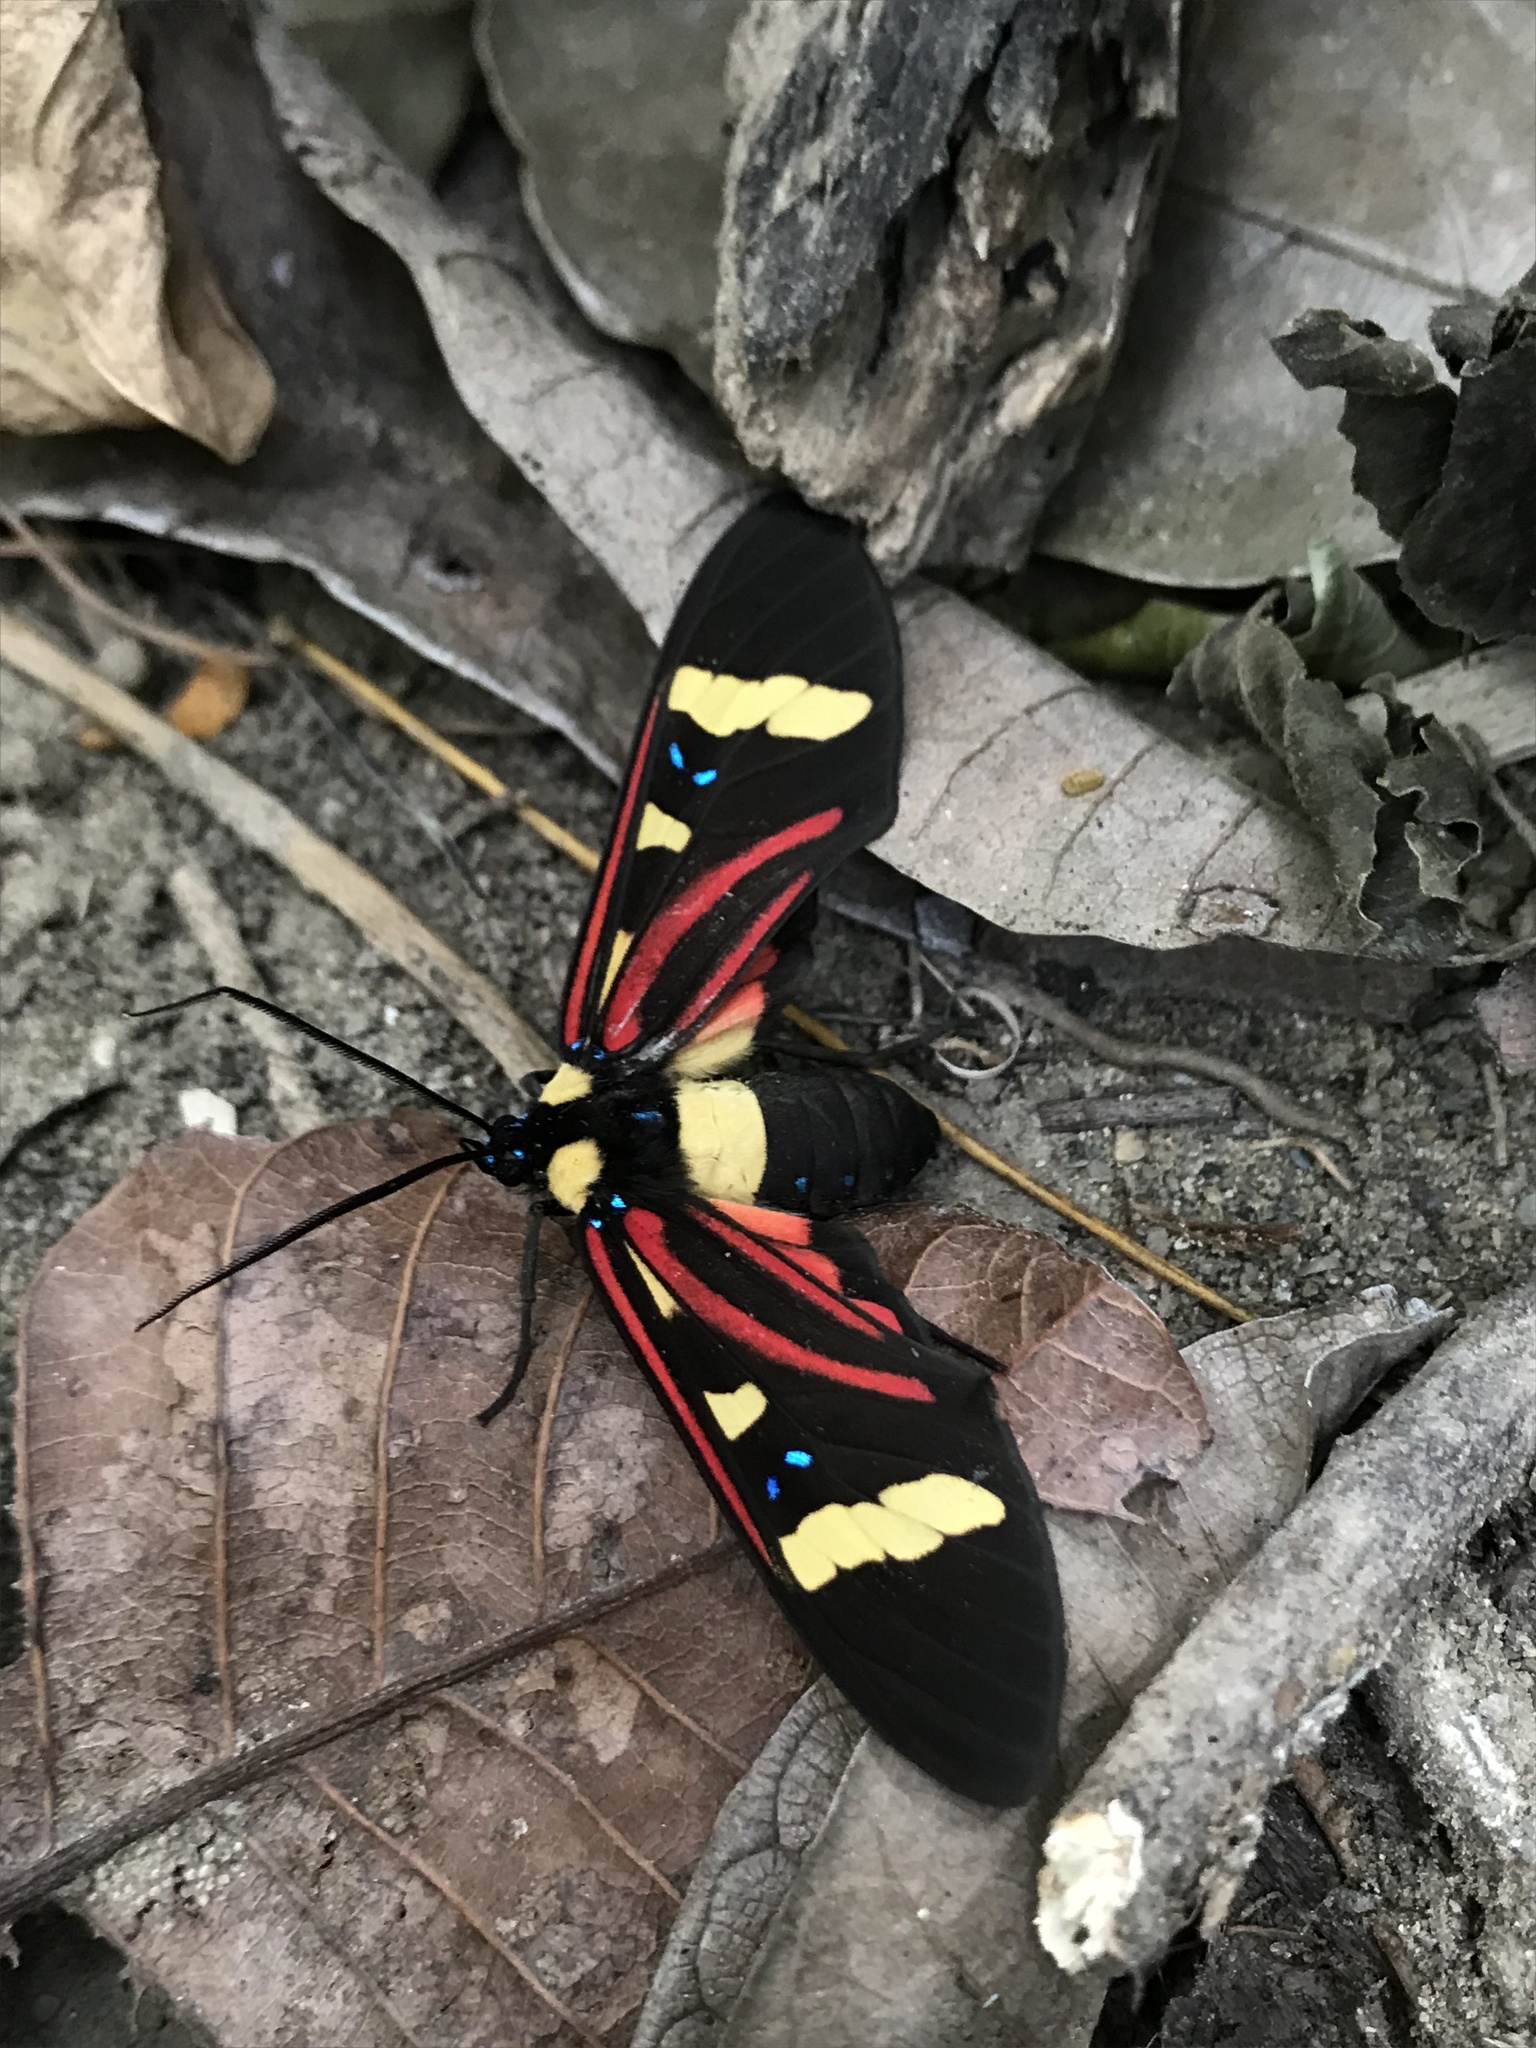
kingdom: Animalia
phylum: Arthropoda
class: Insecta
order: Lepidoptera
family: Erebidae
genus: Histioea
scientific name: Histioea bellatrix
